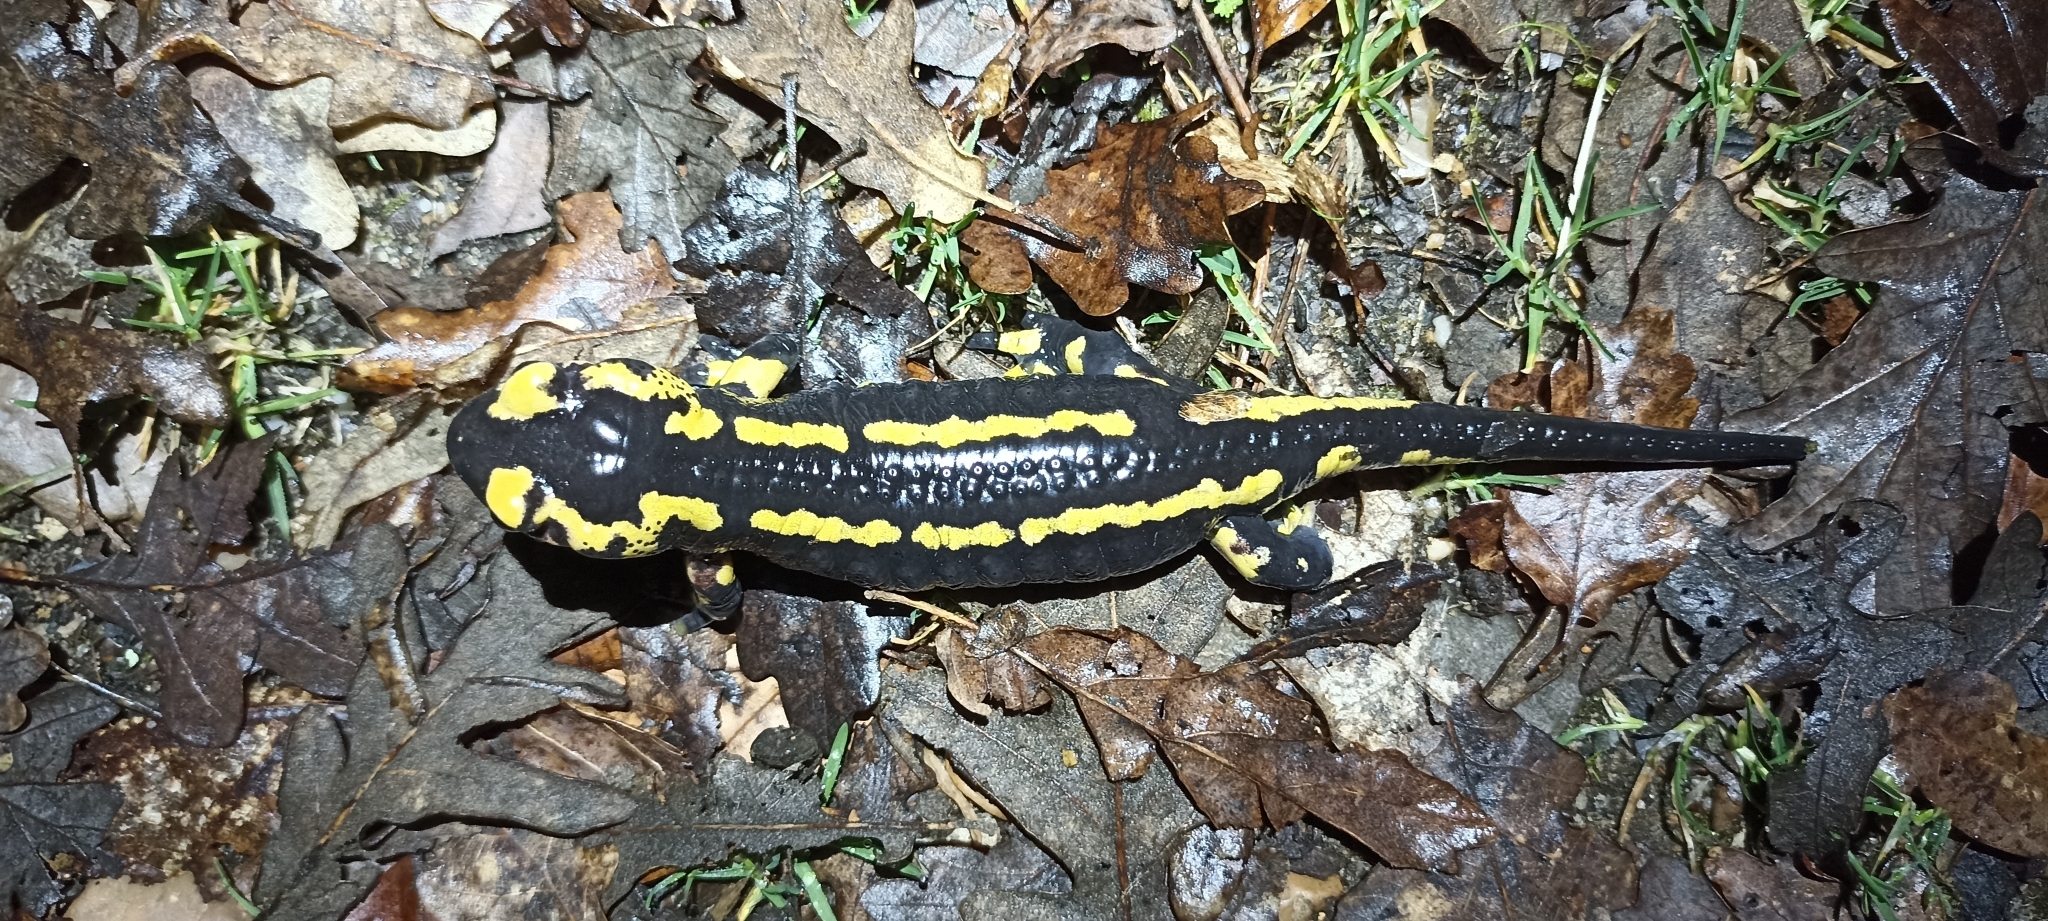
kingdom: Animalia
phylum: Chordata
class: Amphibia
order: Caudata
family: Salamandridae
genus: Salamandra
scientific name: Salamandra salamandra
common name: Fire salamander
